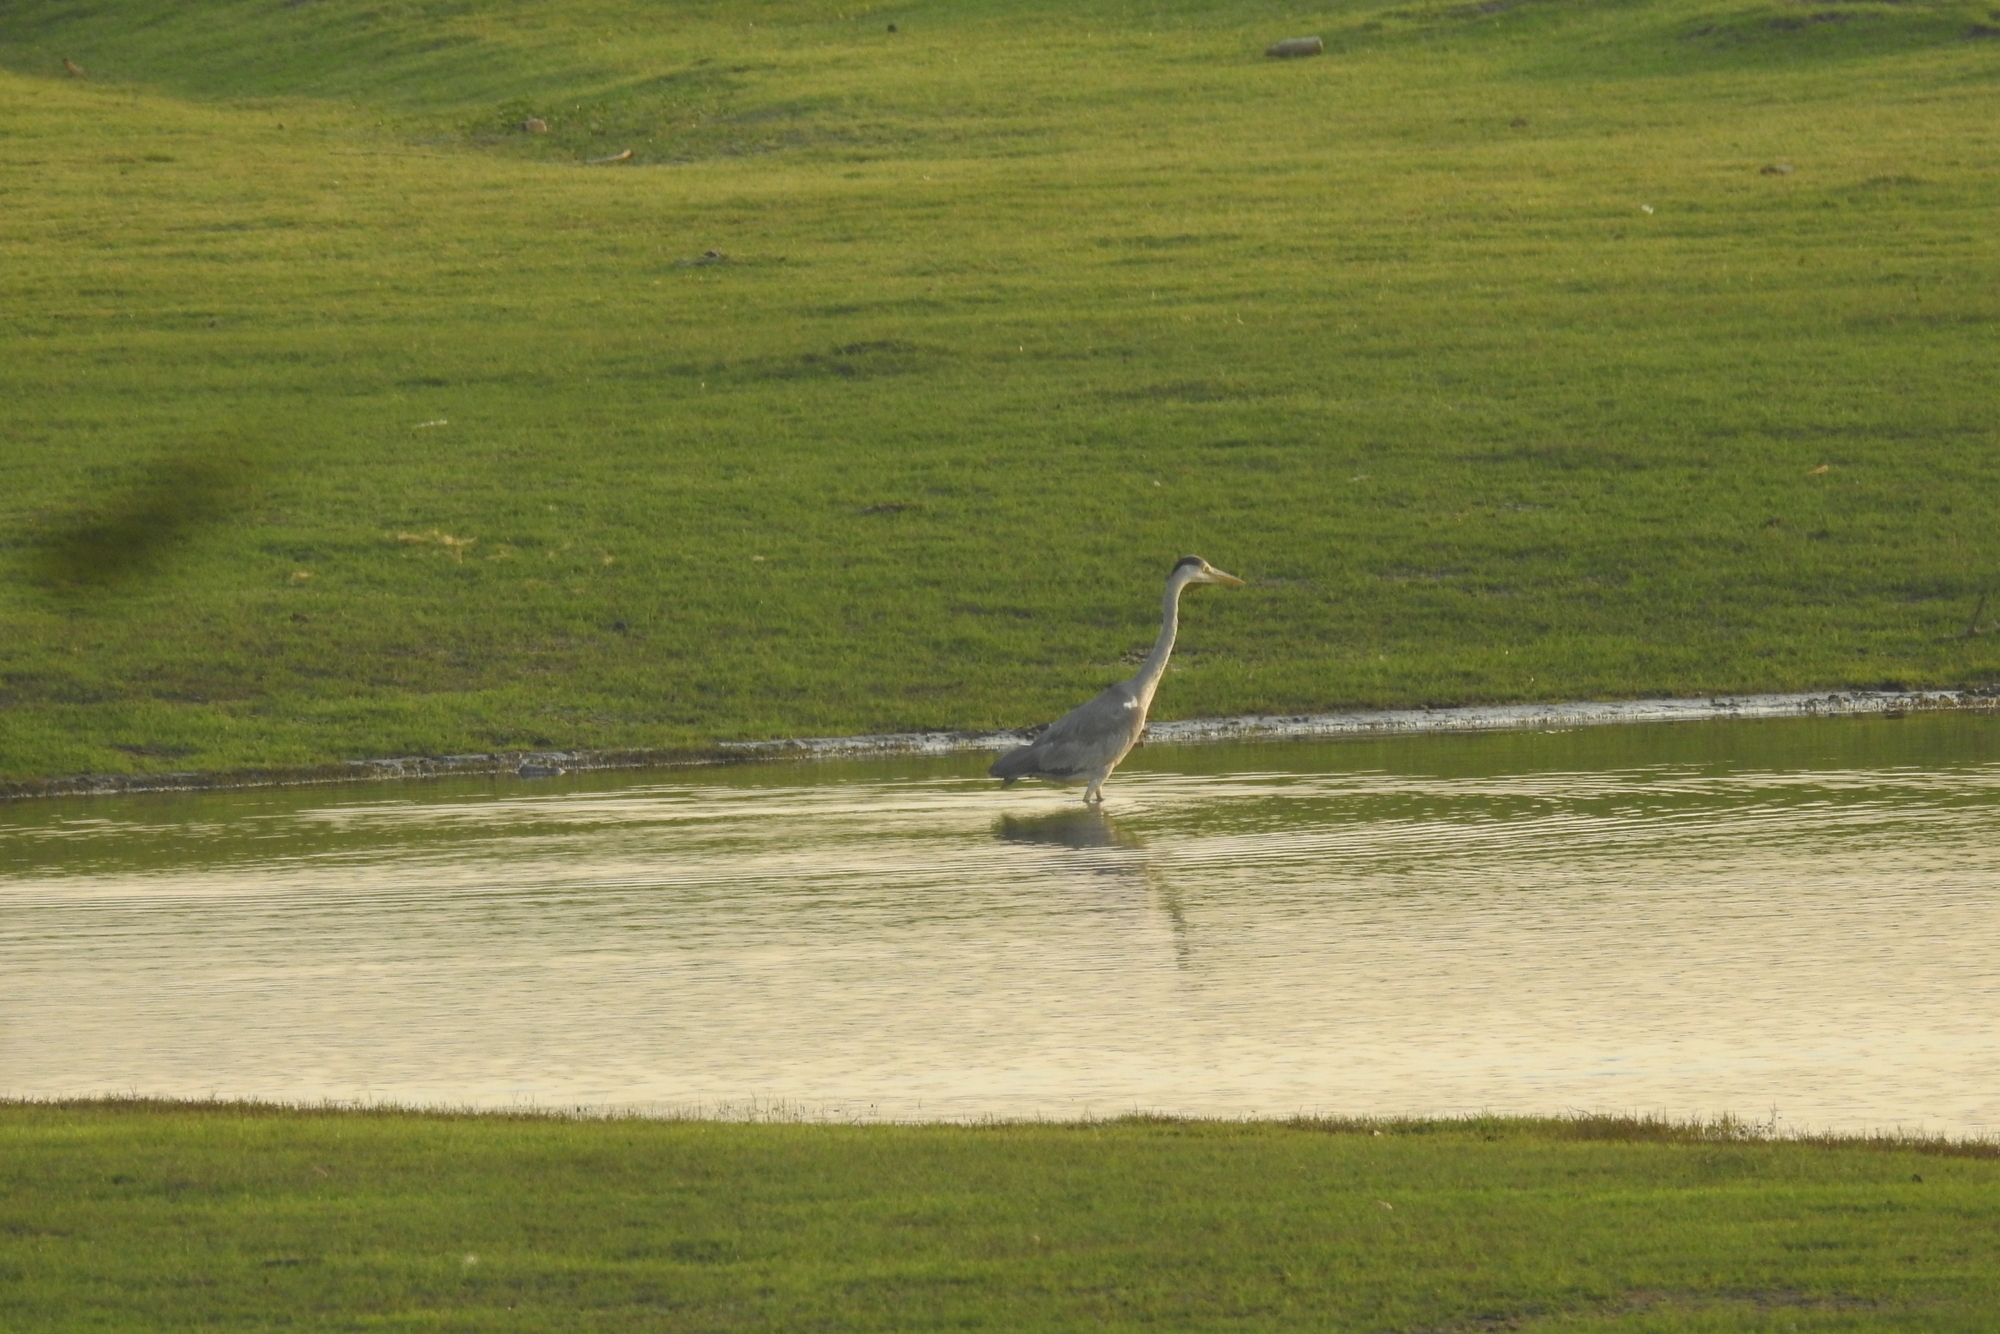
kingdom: Animalia
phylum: Chordata
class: Aves
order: Pelecaniformes
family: Ardeidae
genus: Ardea
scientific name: Ardea cinerea
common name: Grey heron
